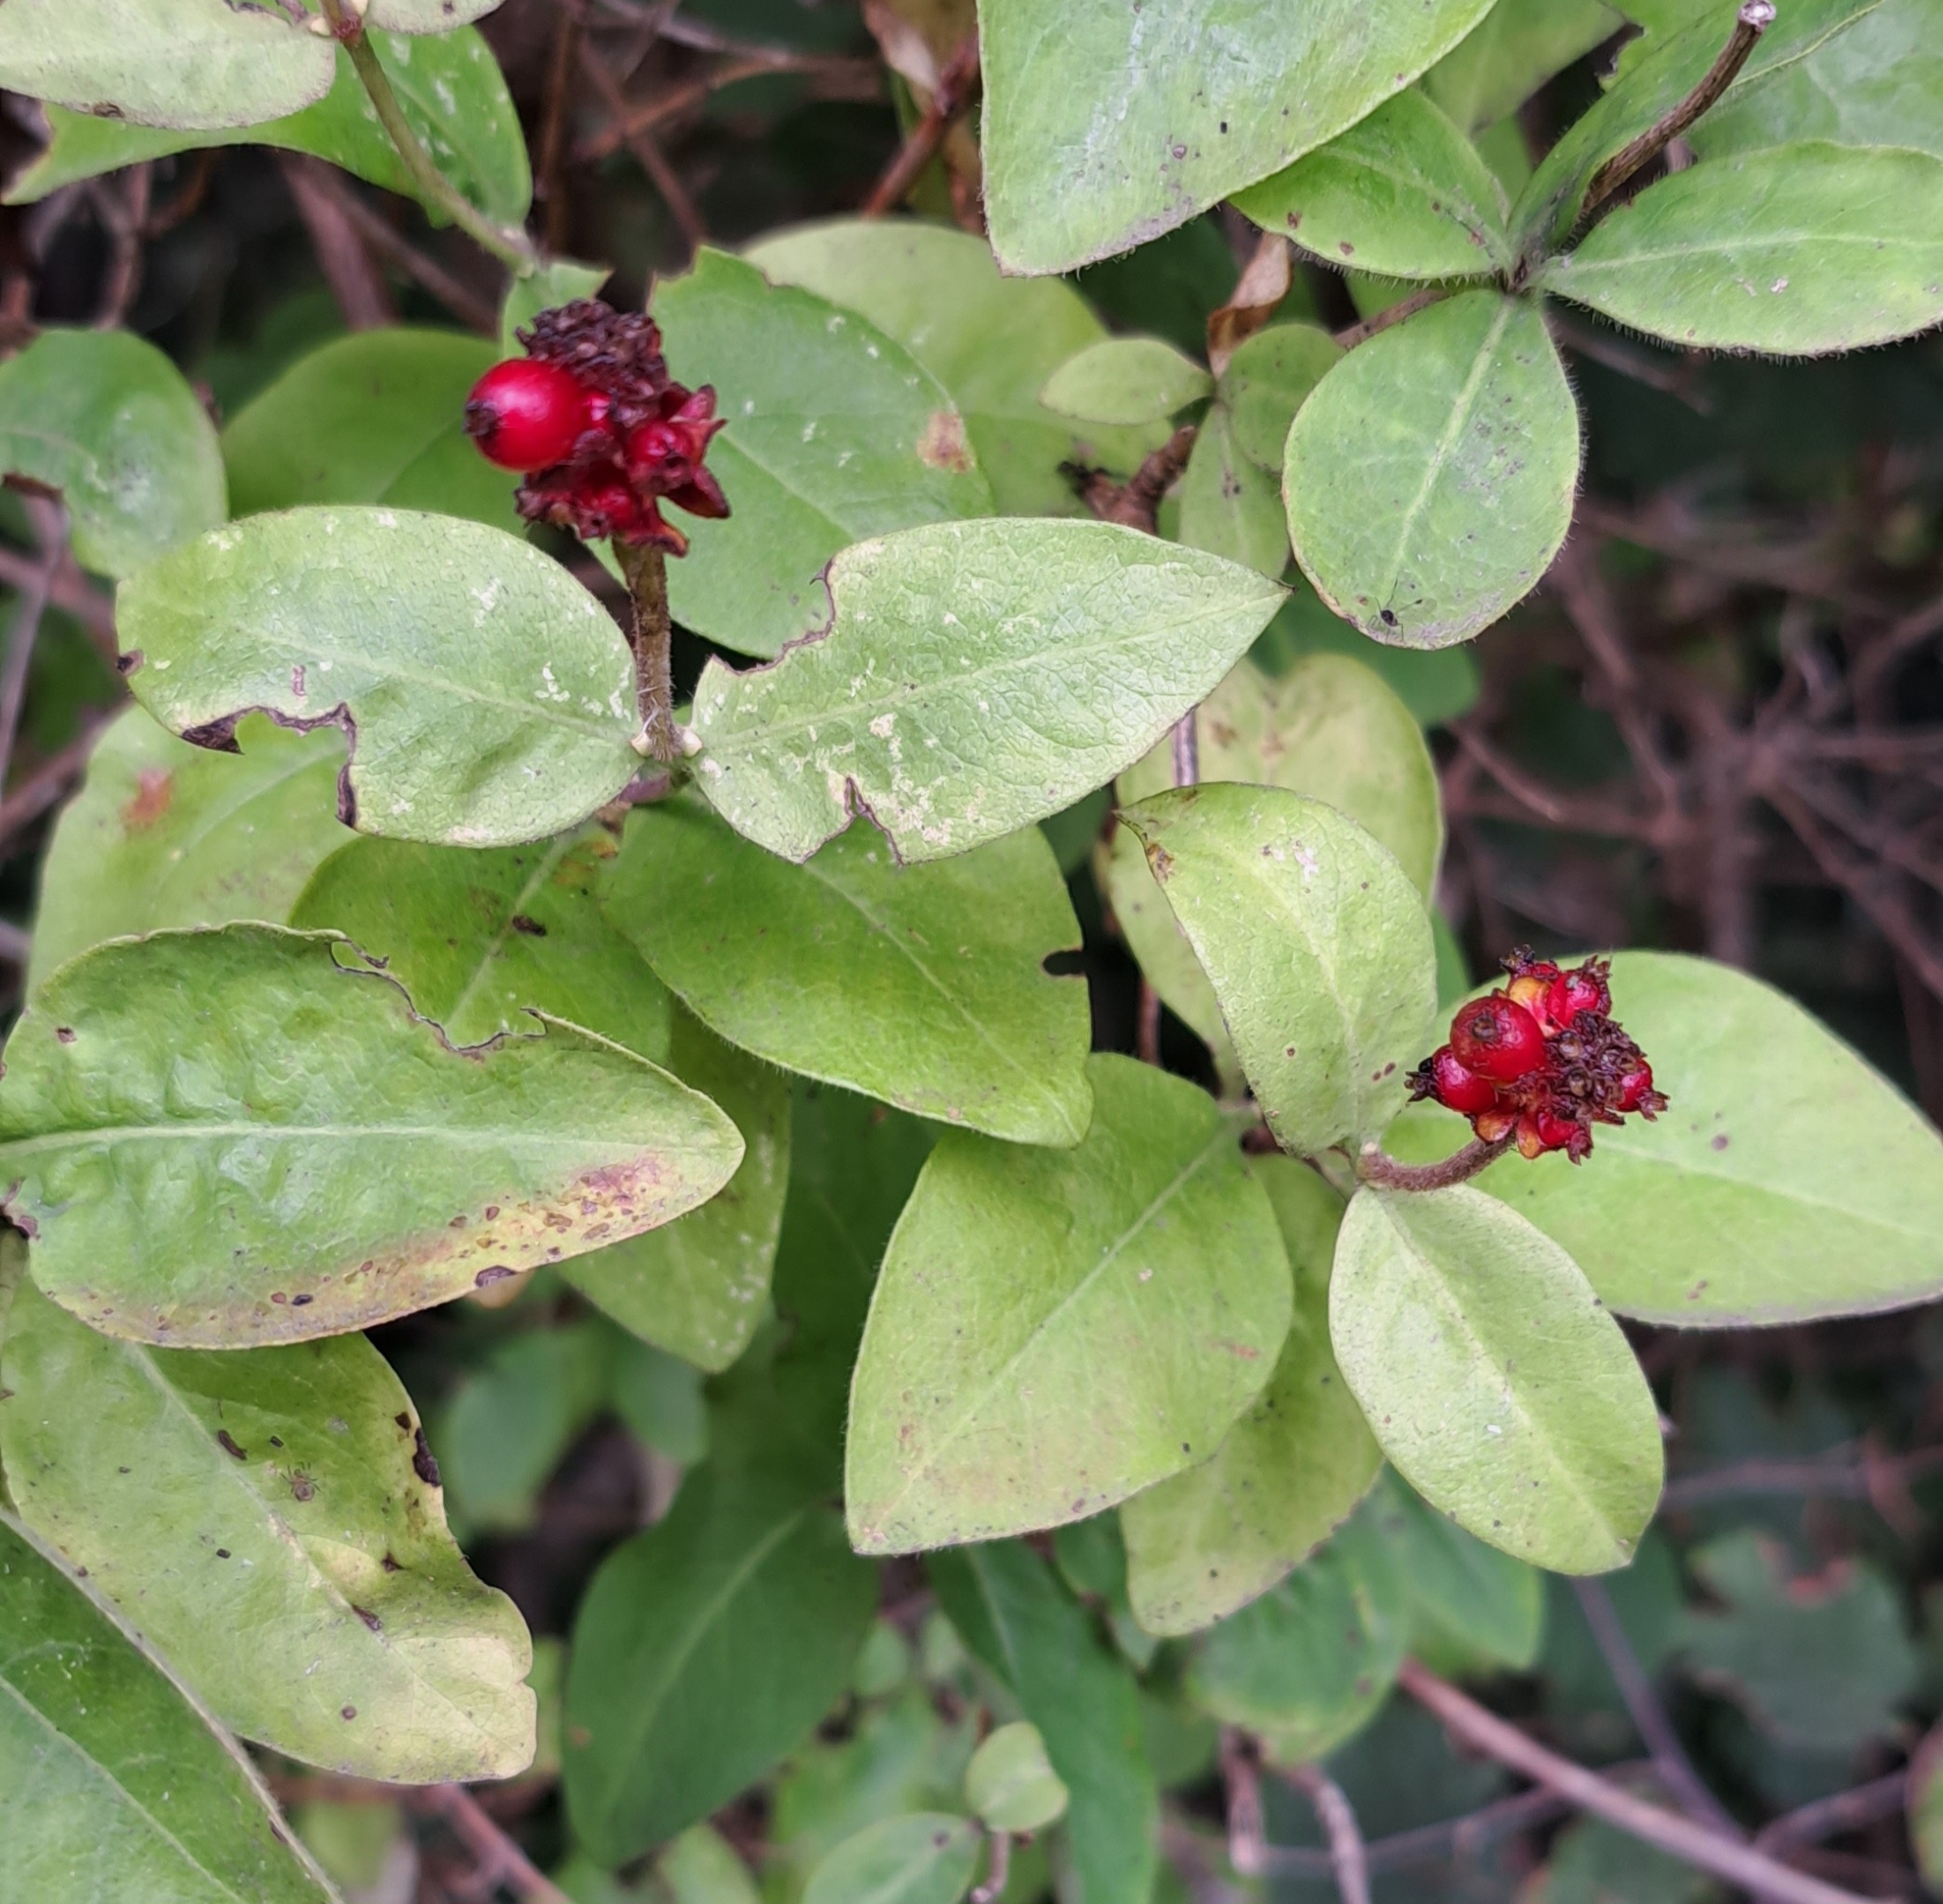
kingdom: Plantae
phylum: Tracheophyta
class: Magnoliopsida
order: Dipsacales
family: Caprifoliaceae
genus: Lonicera
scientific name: Lonicera periclymenum
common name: European honeysuckle
